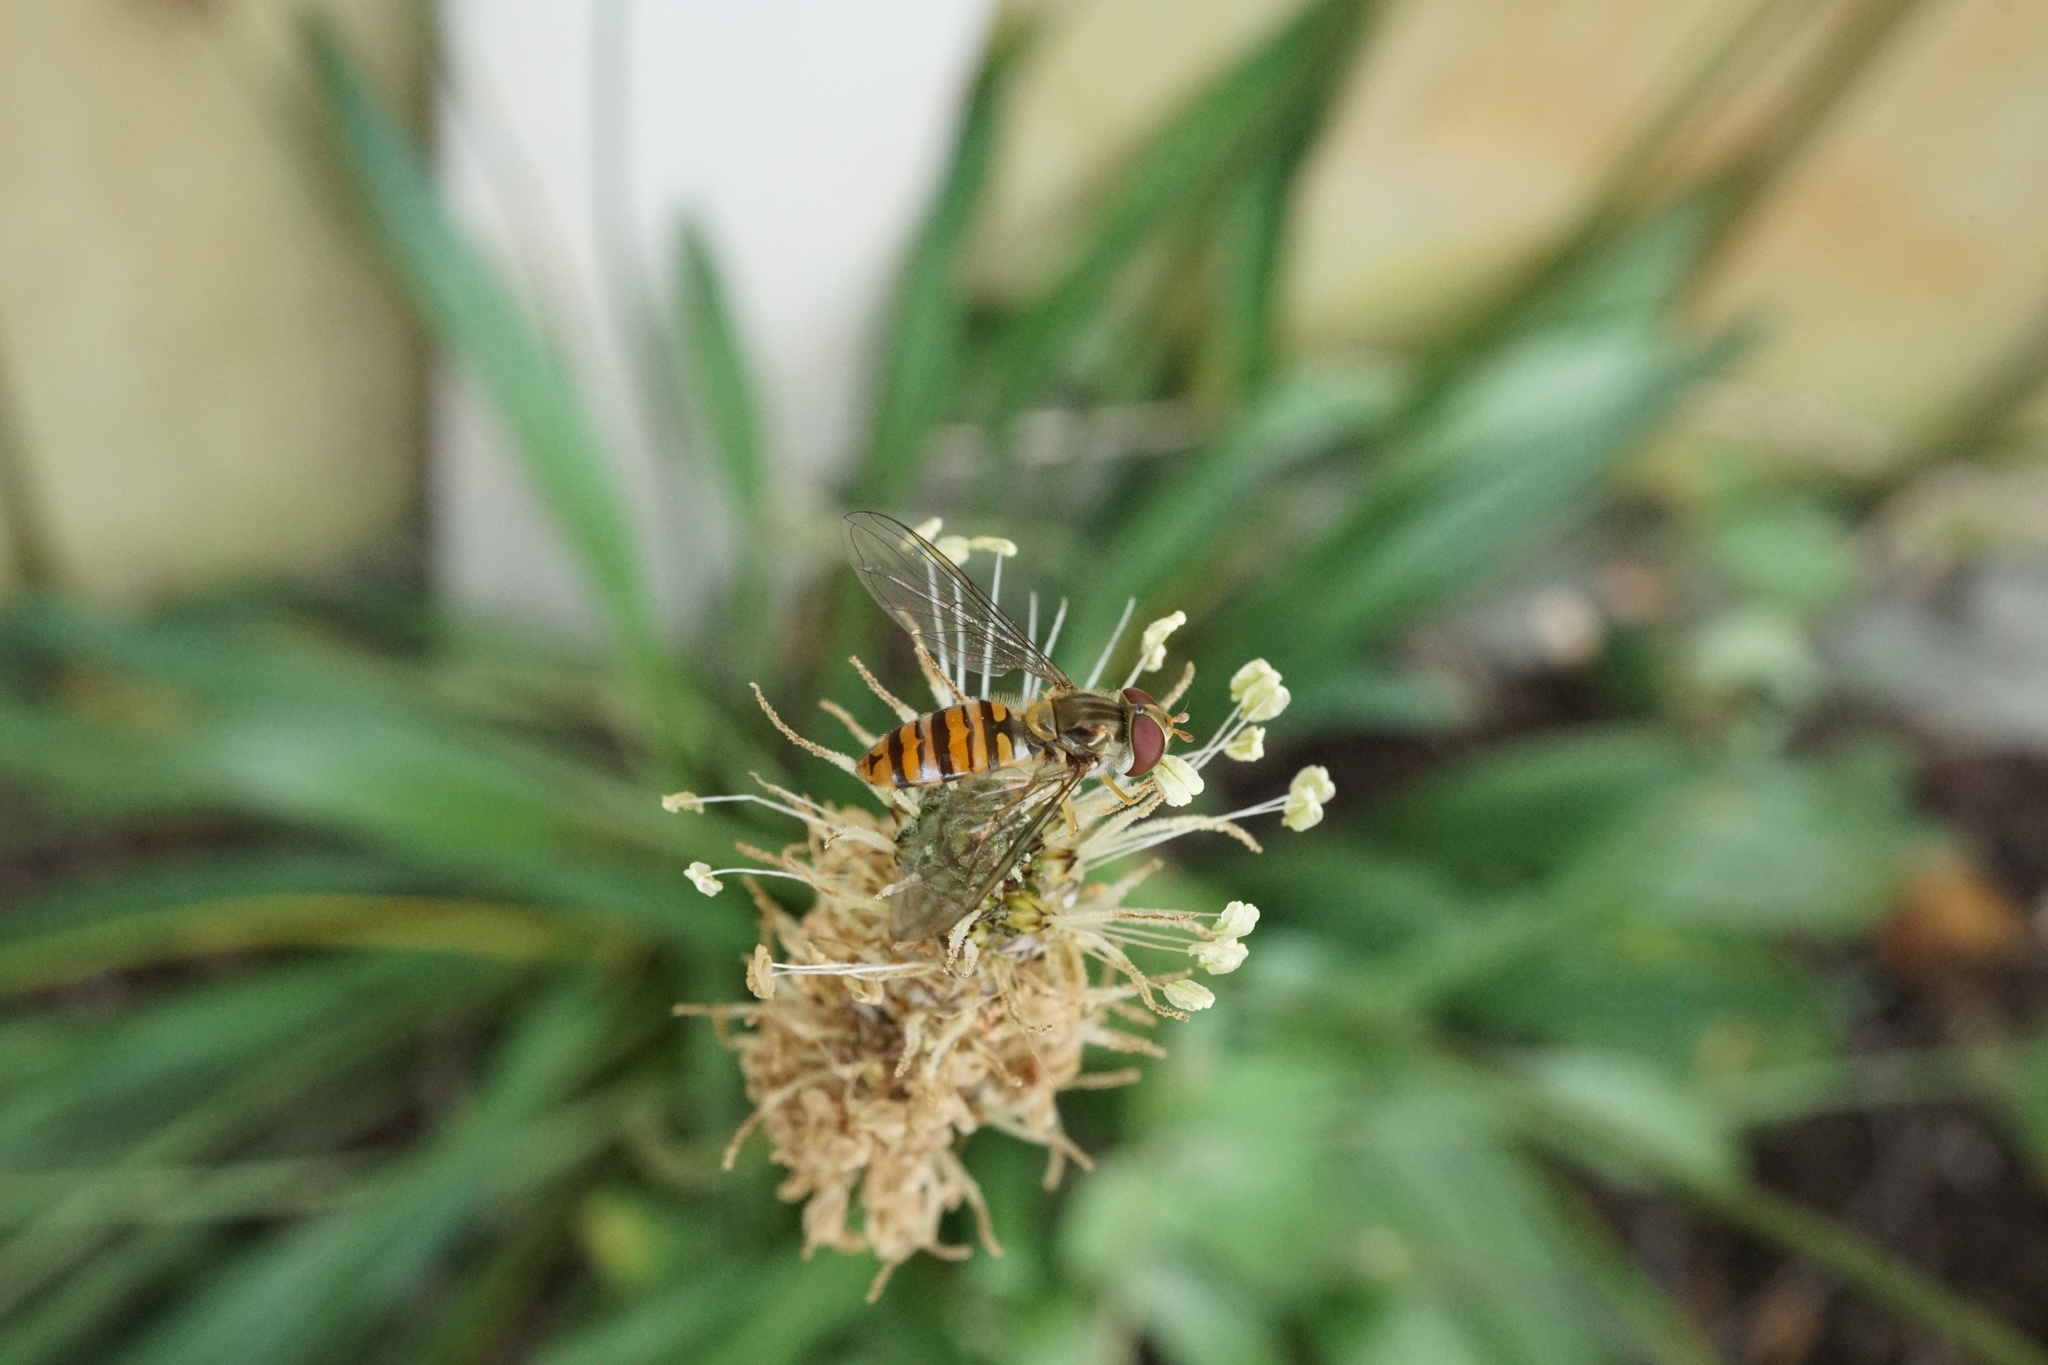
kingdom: Animalia
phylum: Arthropoda
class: Insecta
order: Diptera
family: Syrphidae
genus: Episyrphus
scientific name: Episyrphus balteatus
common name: Marmalade hoverfly
